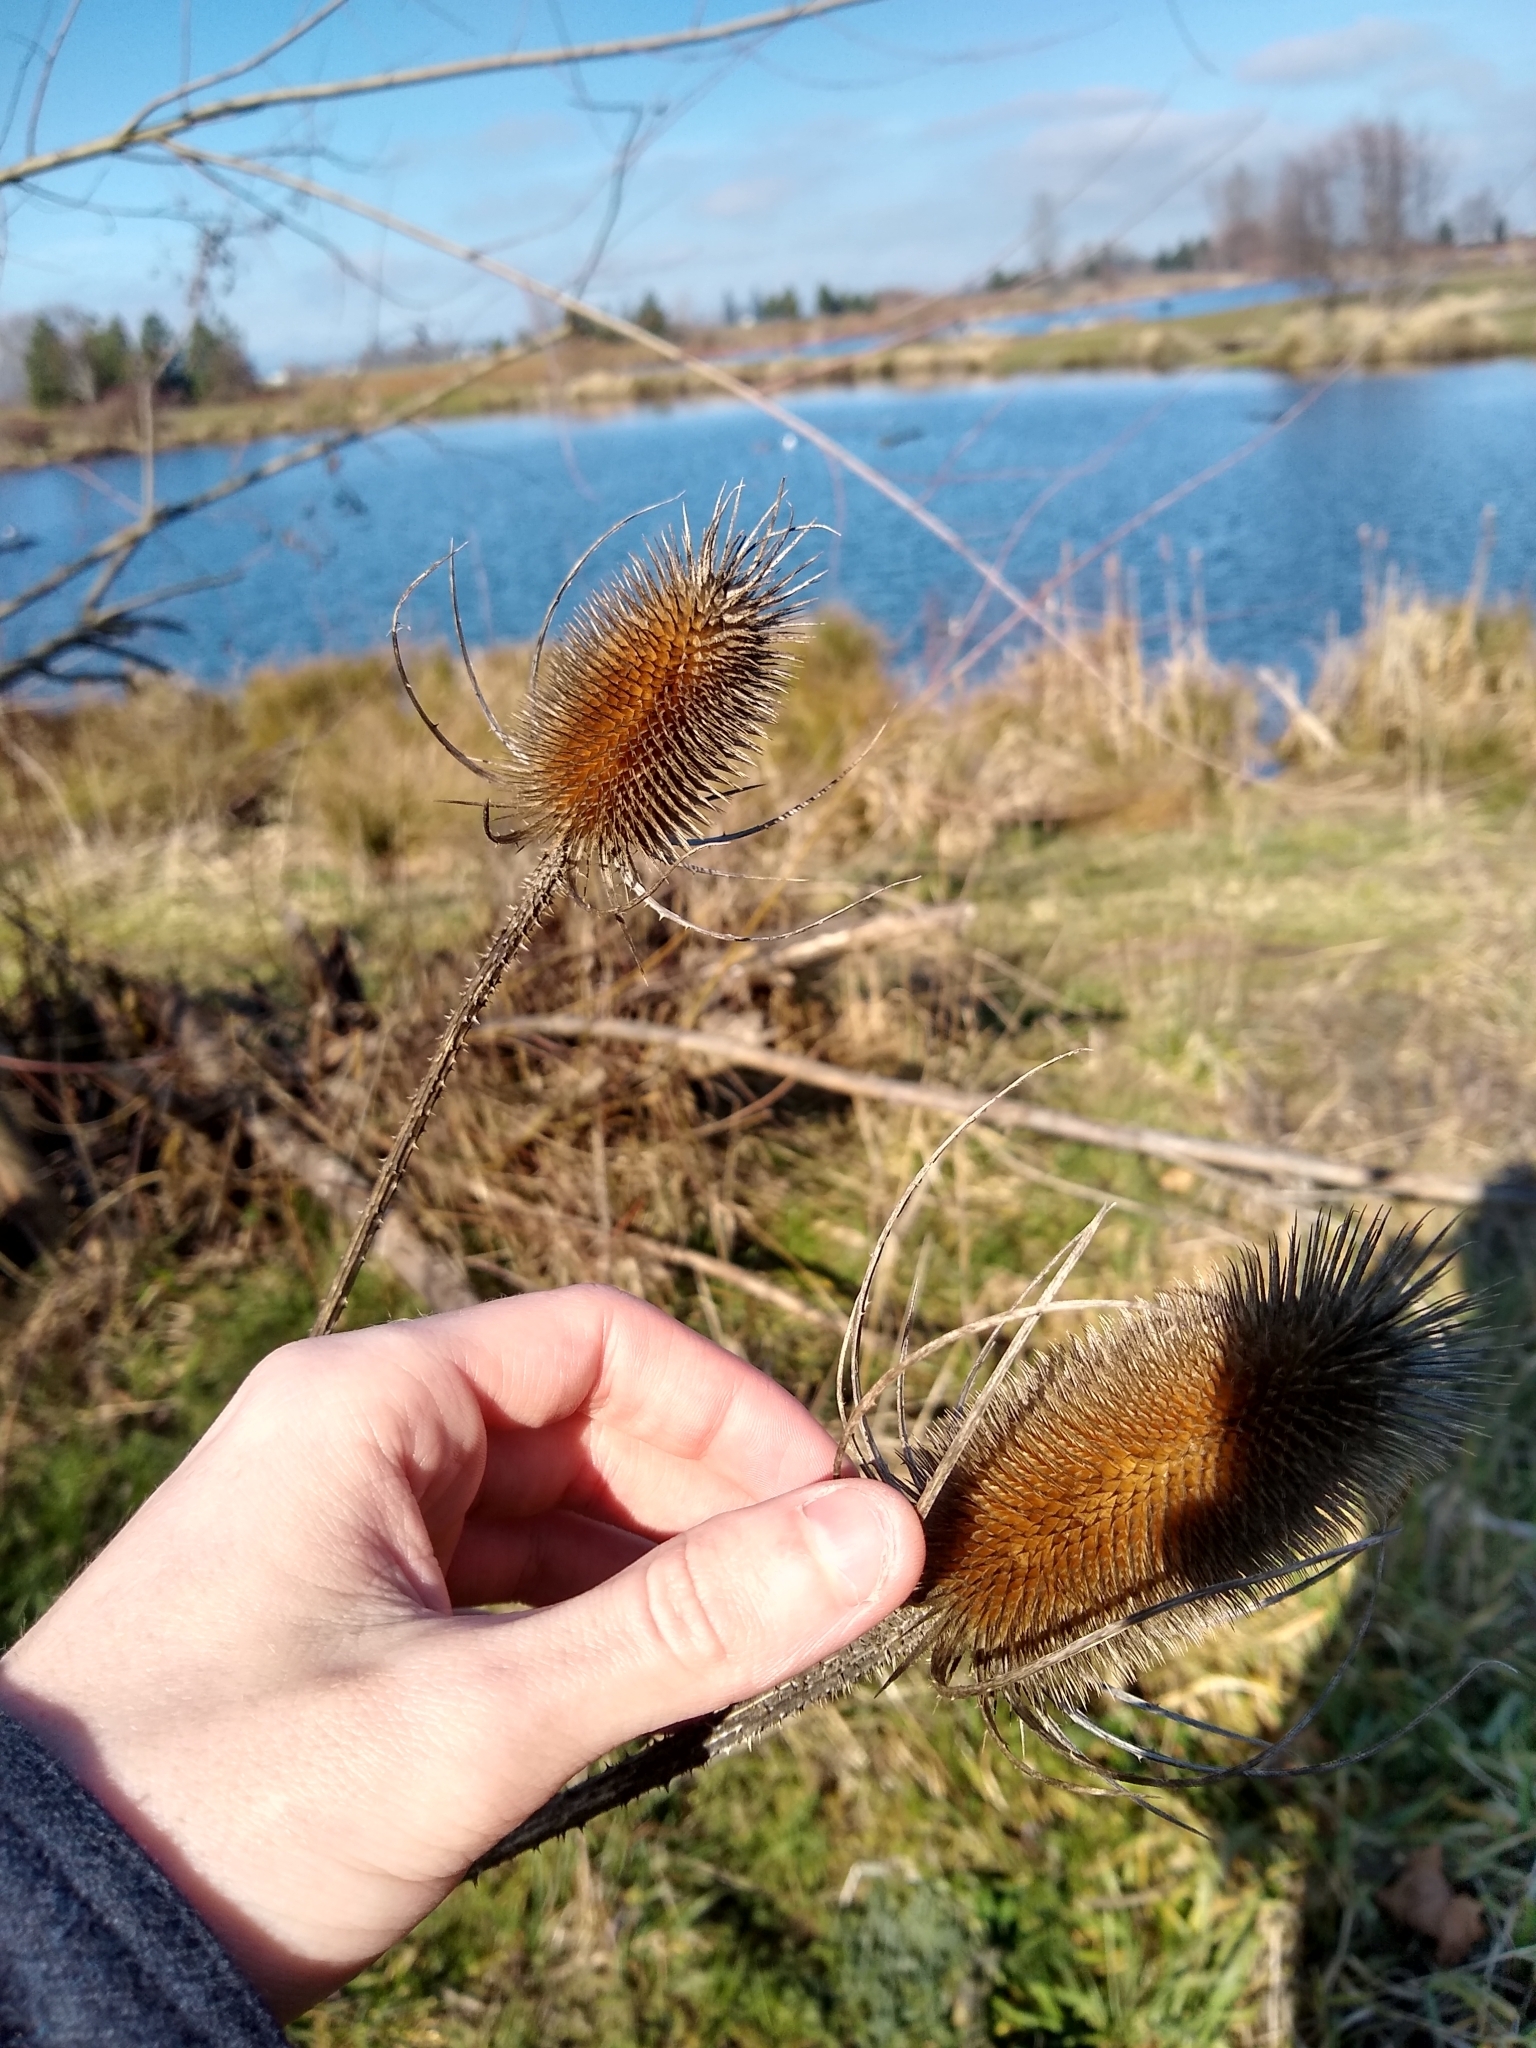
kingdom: Plantae
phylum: Tracheophyta
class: Magnoliopsida
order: Dipsacales
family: Caprifoliaceae
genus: Dipsacus
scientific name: Dipsacus fullonum
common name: Teasel
